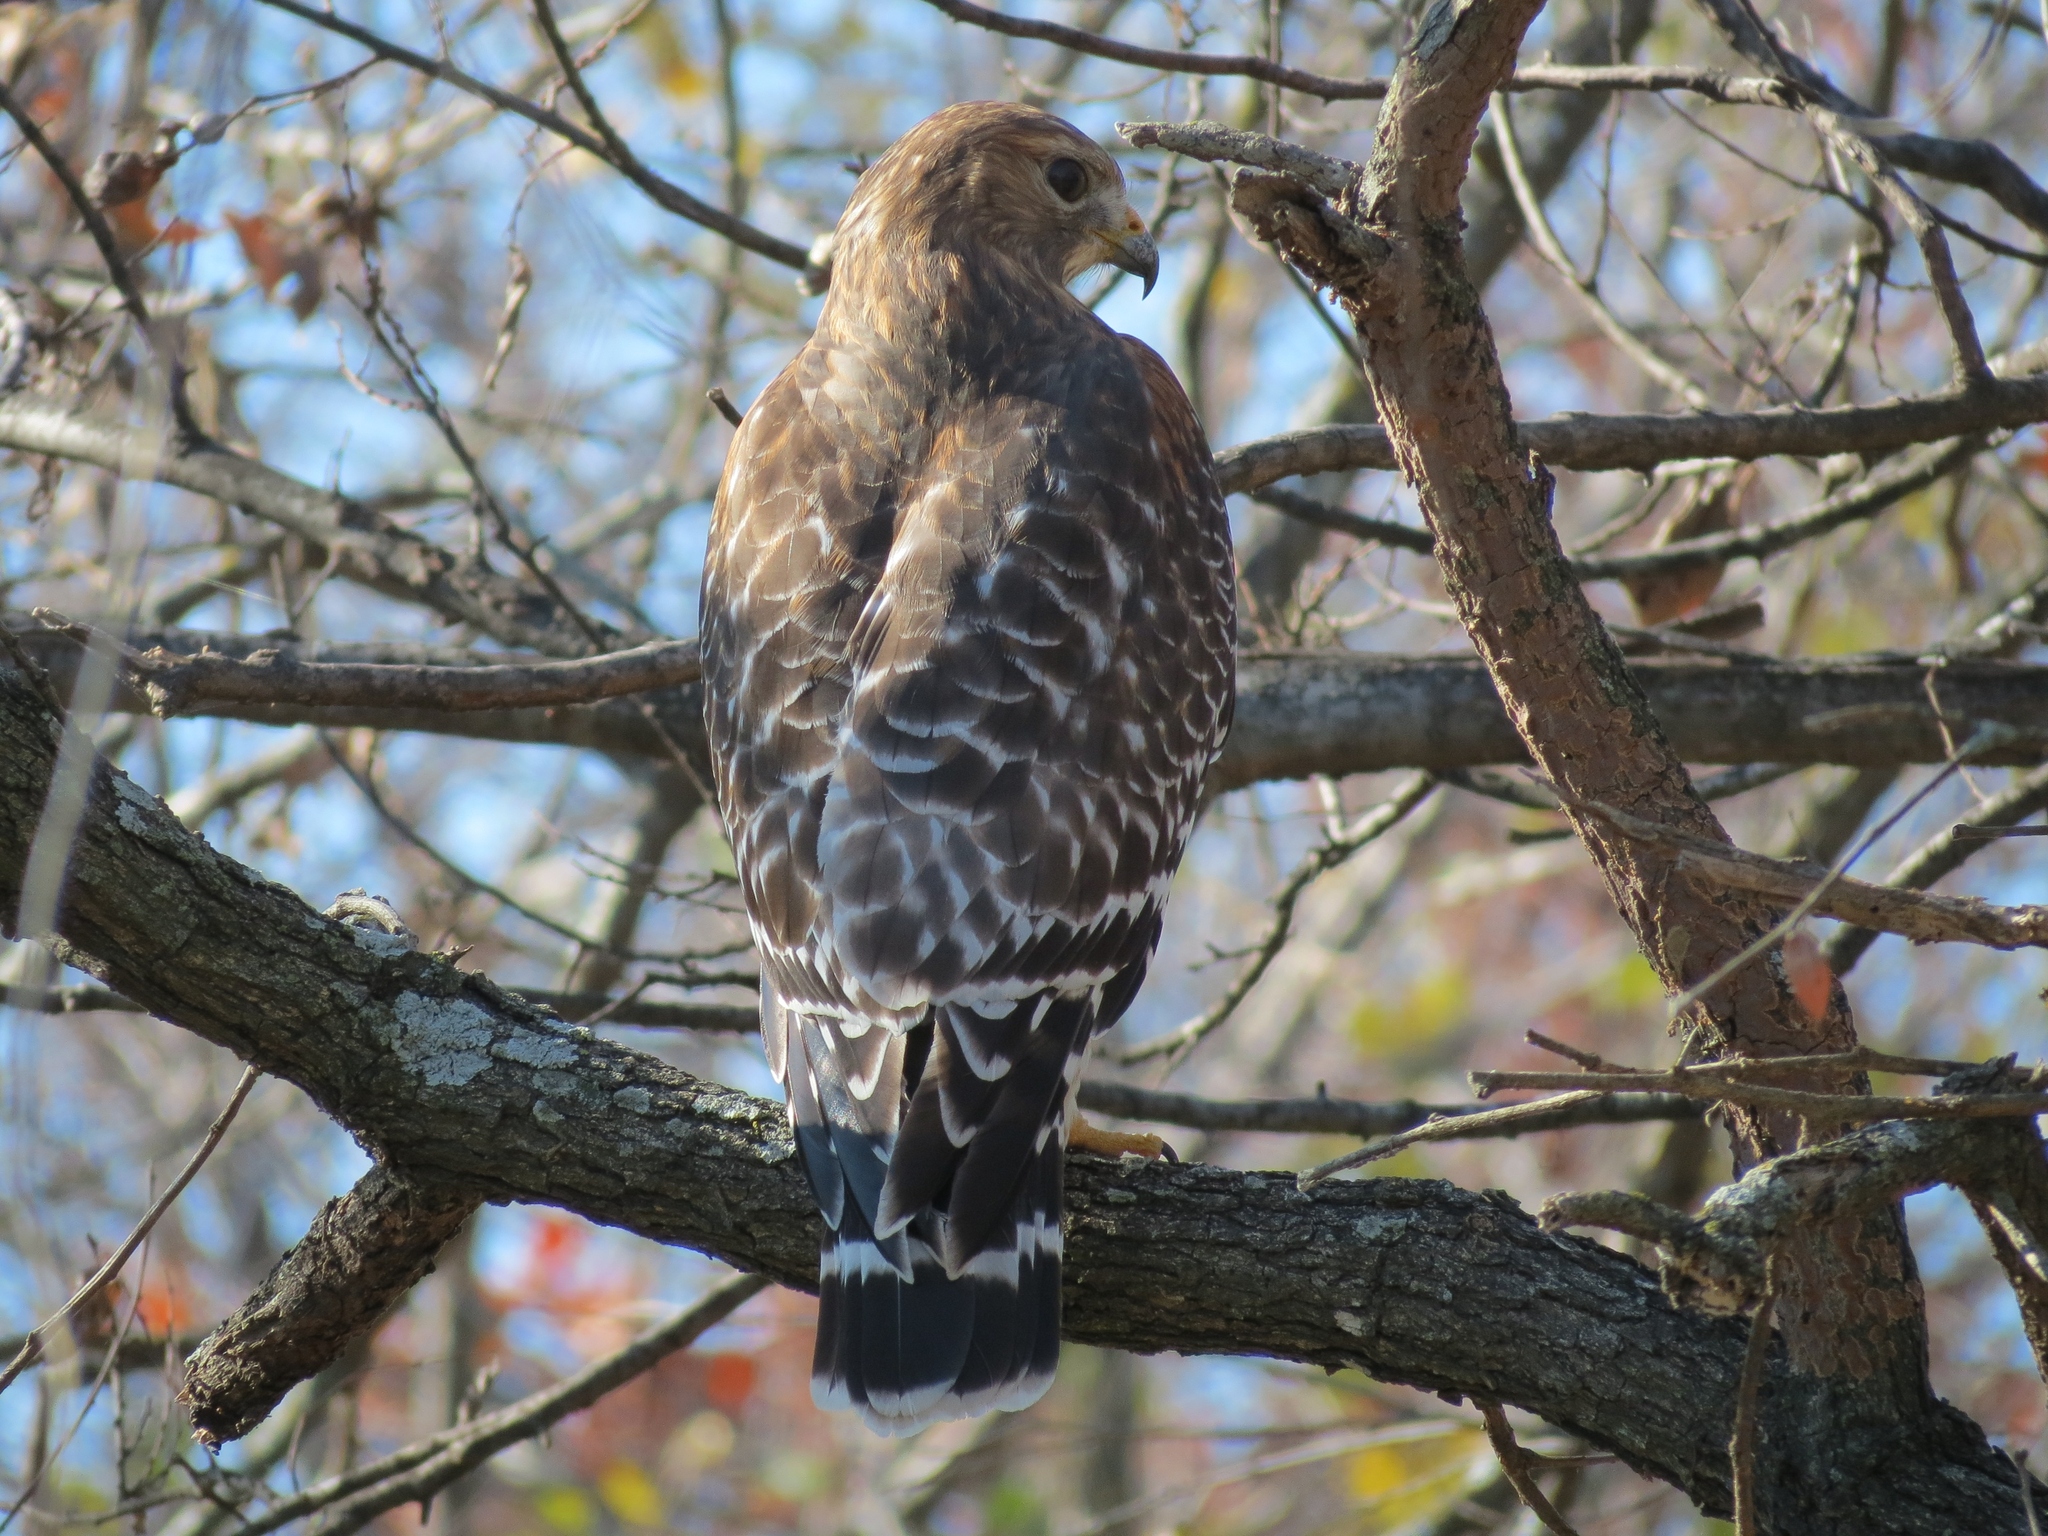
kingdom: Animalia
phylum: Chordata
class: Aves
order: Accipitriformes
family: Accipitridae
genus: Buteo
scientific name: Buteo lineatus
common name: Red-shouldered hawk
